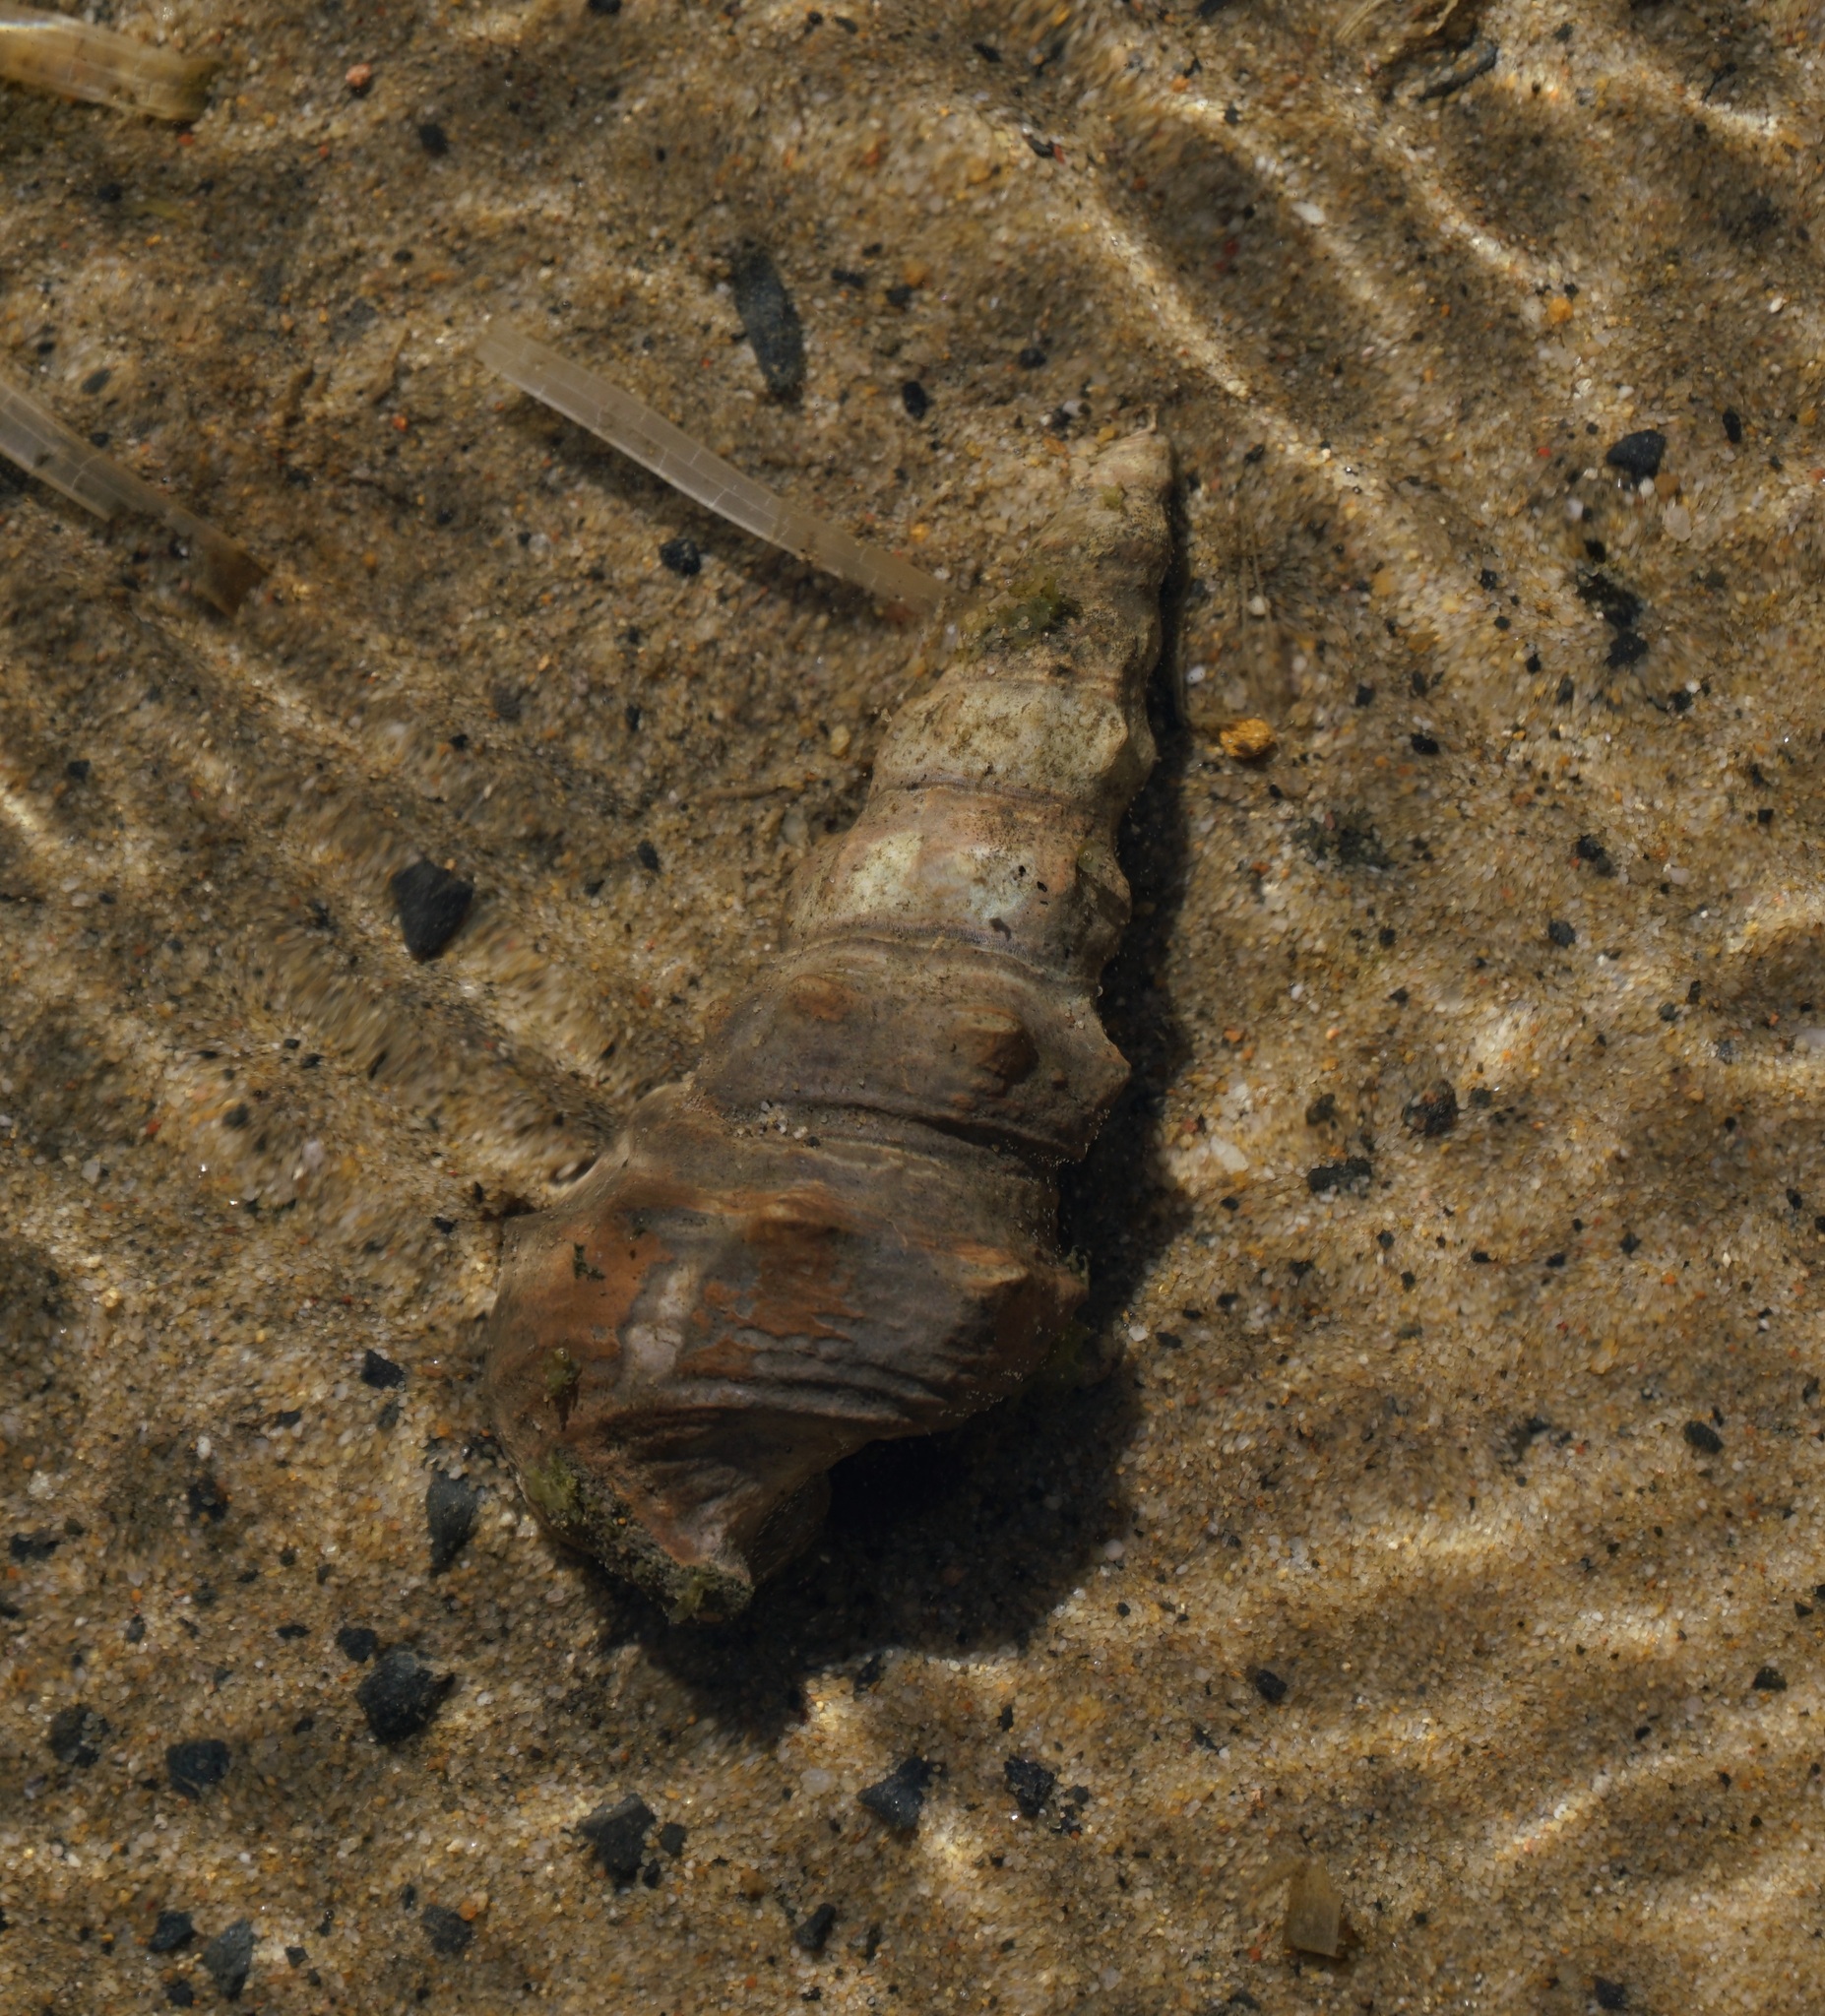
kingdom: Animalia
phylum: Mollusca
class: Gastropoda
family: Batillariidae
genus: Pyrazus
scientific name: Pyrazus ebeninus
